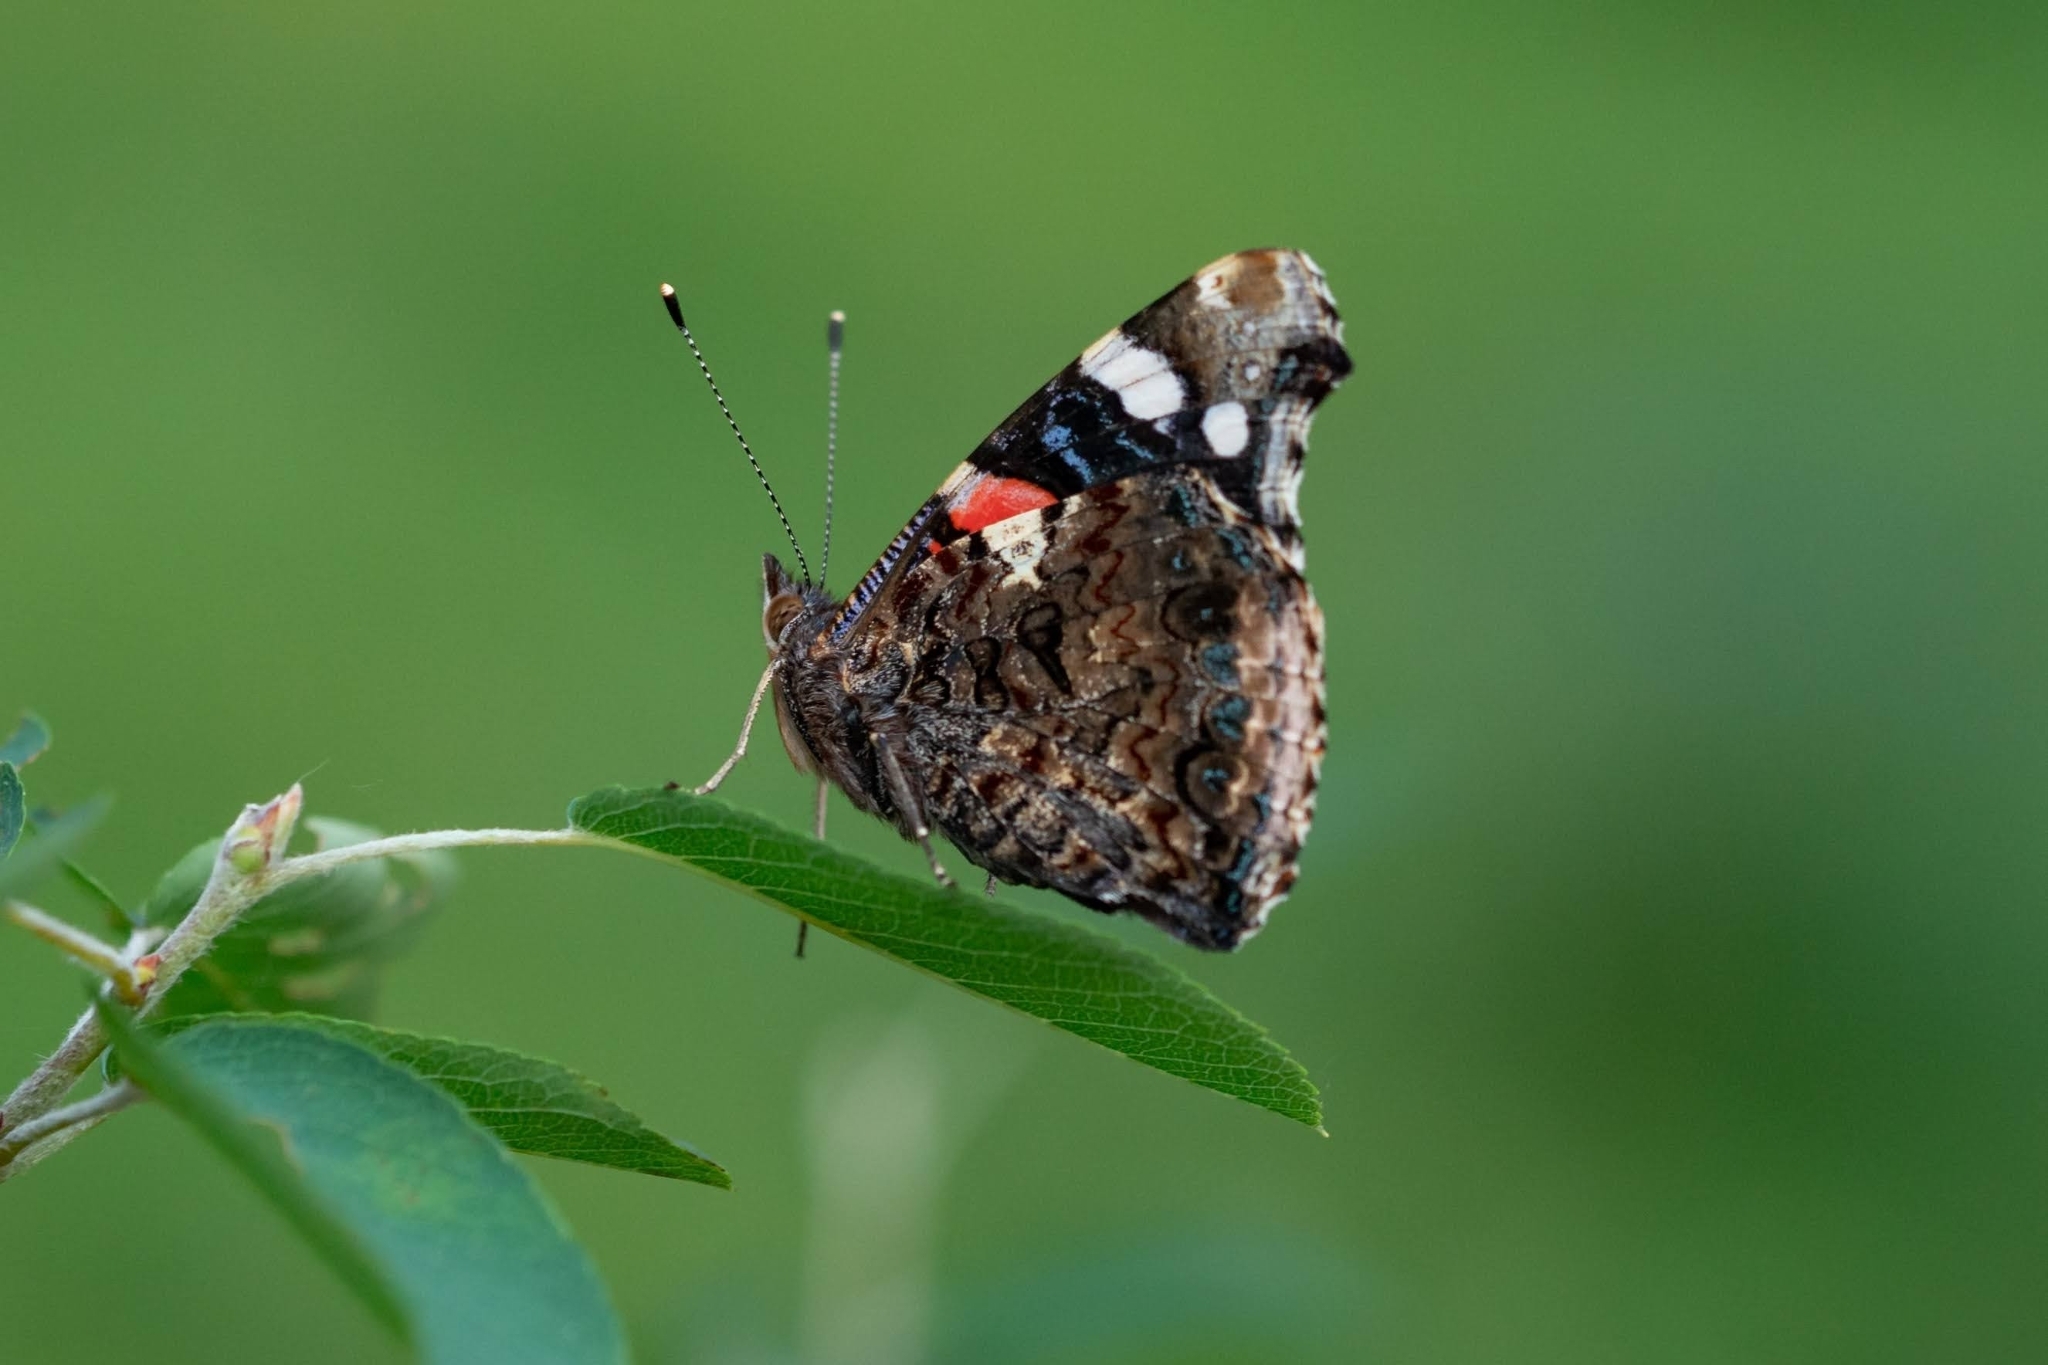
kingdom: Animalia
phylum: Arthropoda
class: Insecta
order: Lepidoptera
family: Nymphalidae
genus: Vanessa
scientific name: Vanessa atalanta
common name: Red admiral
